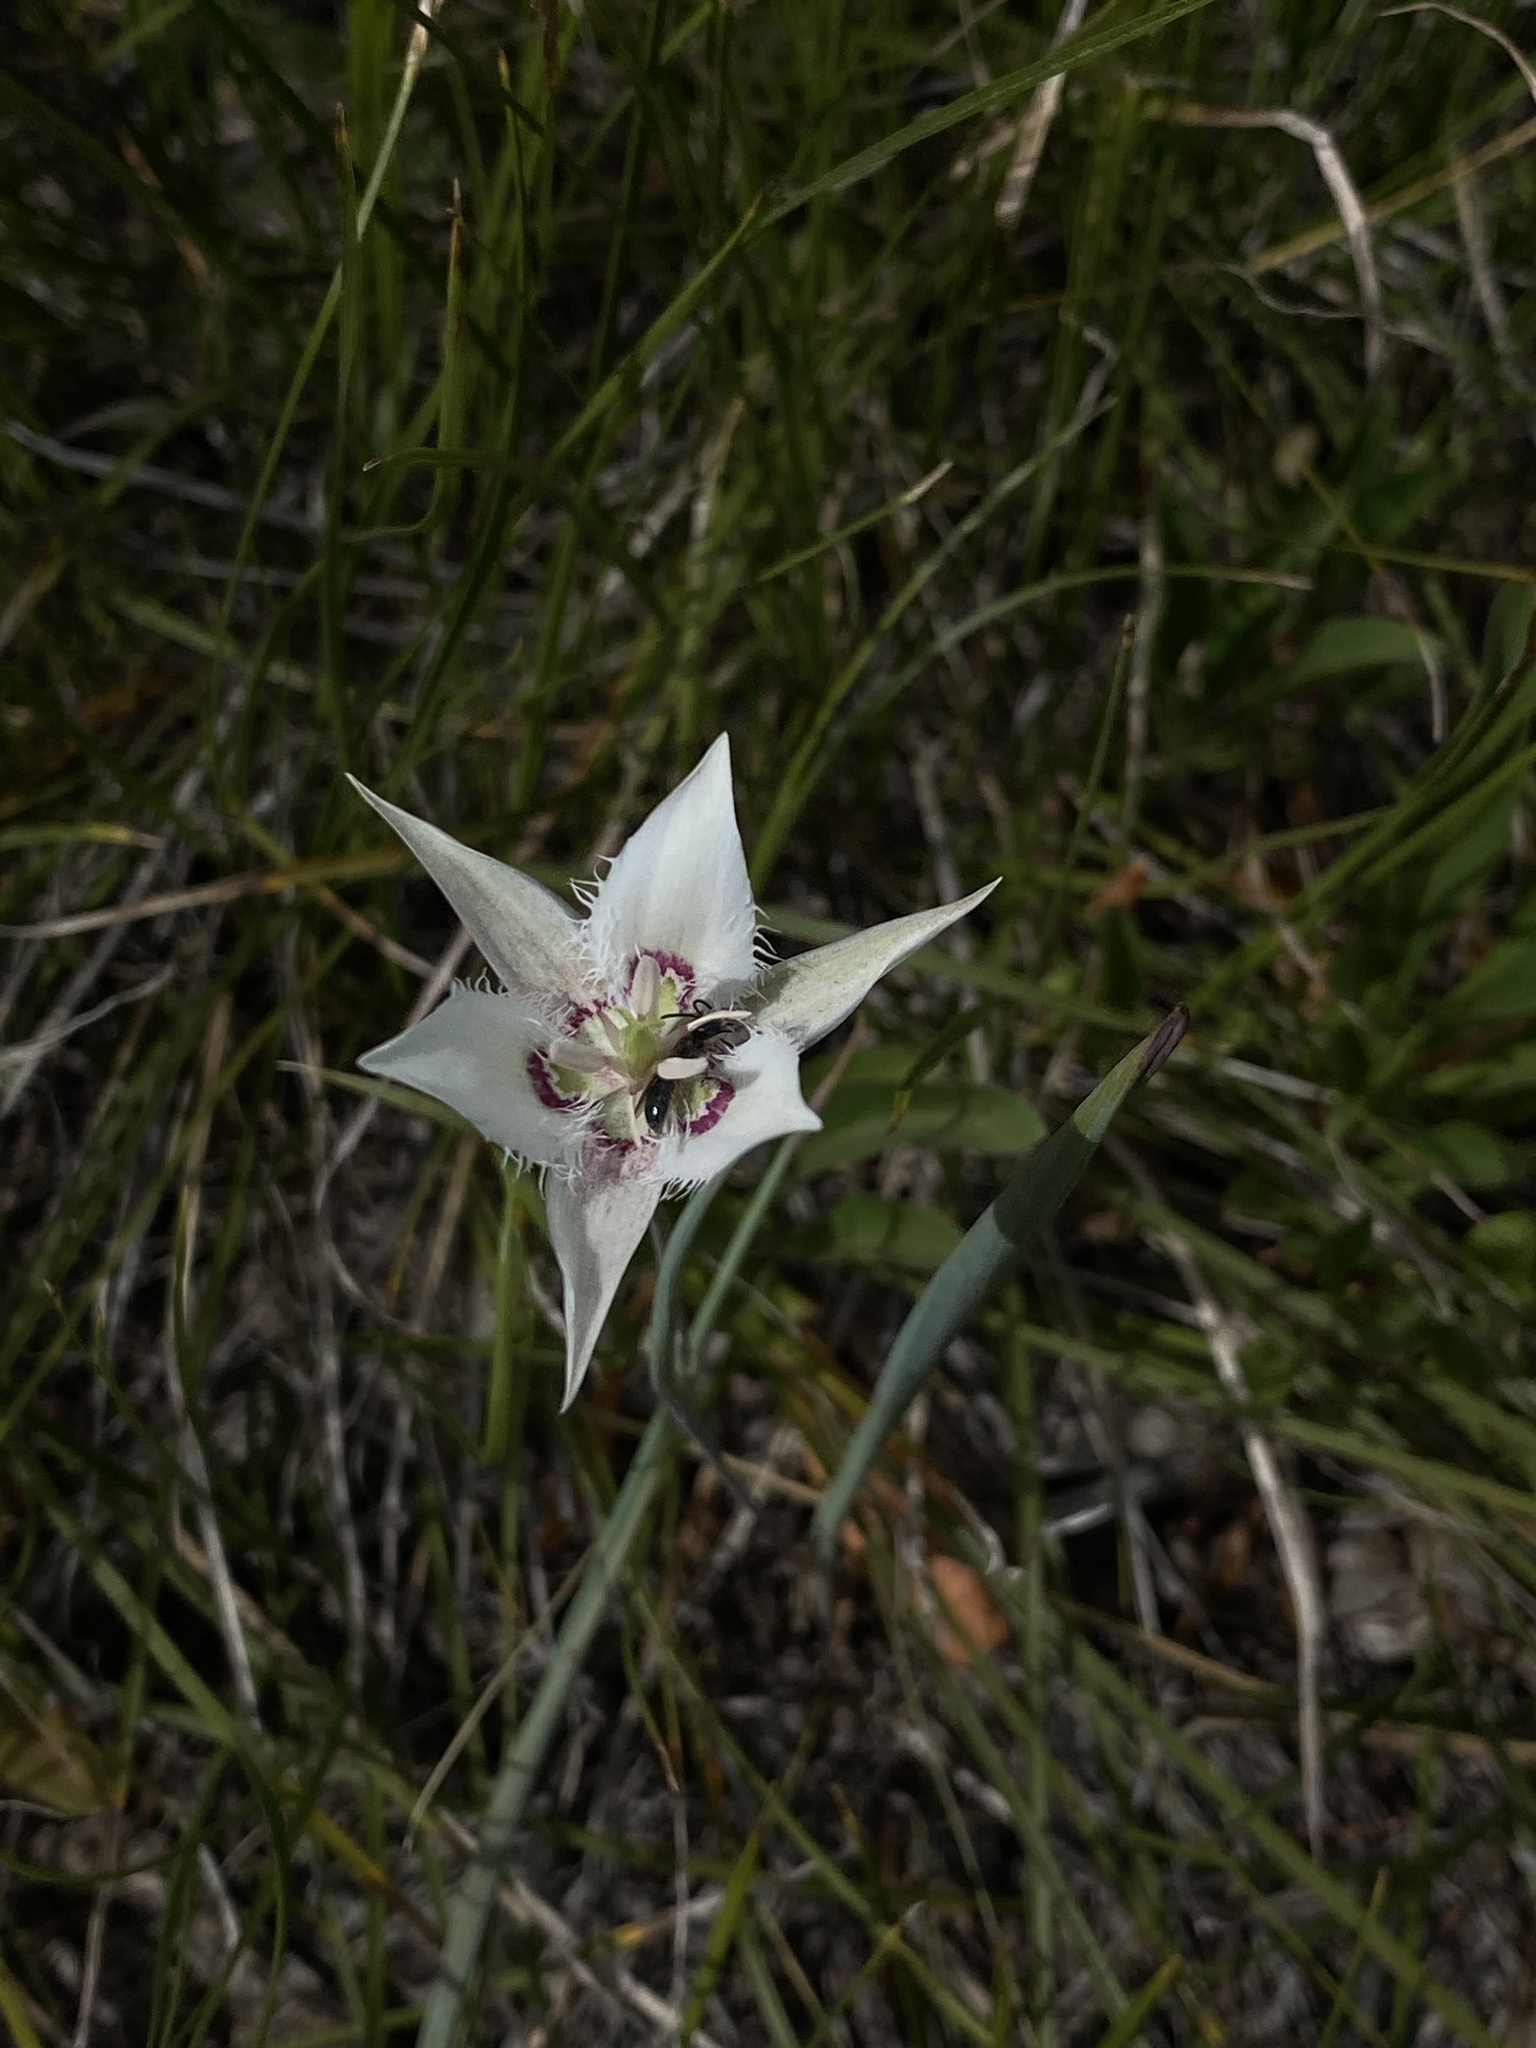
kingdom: Plantae
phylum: Tracheophyta
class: Liliopsida
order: Liliales
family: Liliaceae
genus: Calochortus
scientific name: Calochortus lyallii
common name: Lyall's mariposa lily
